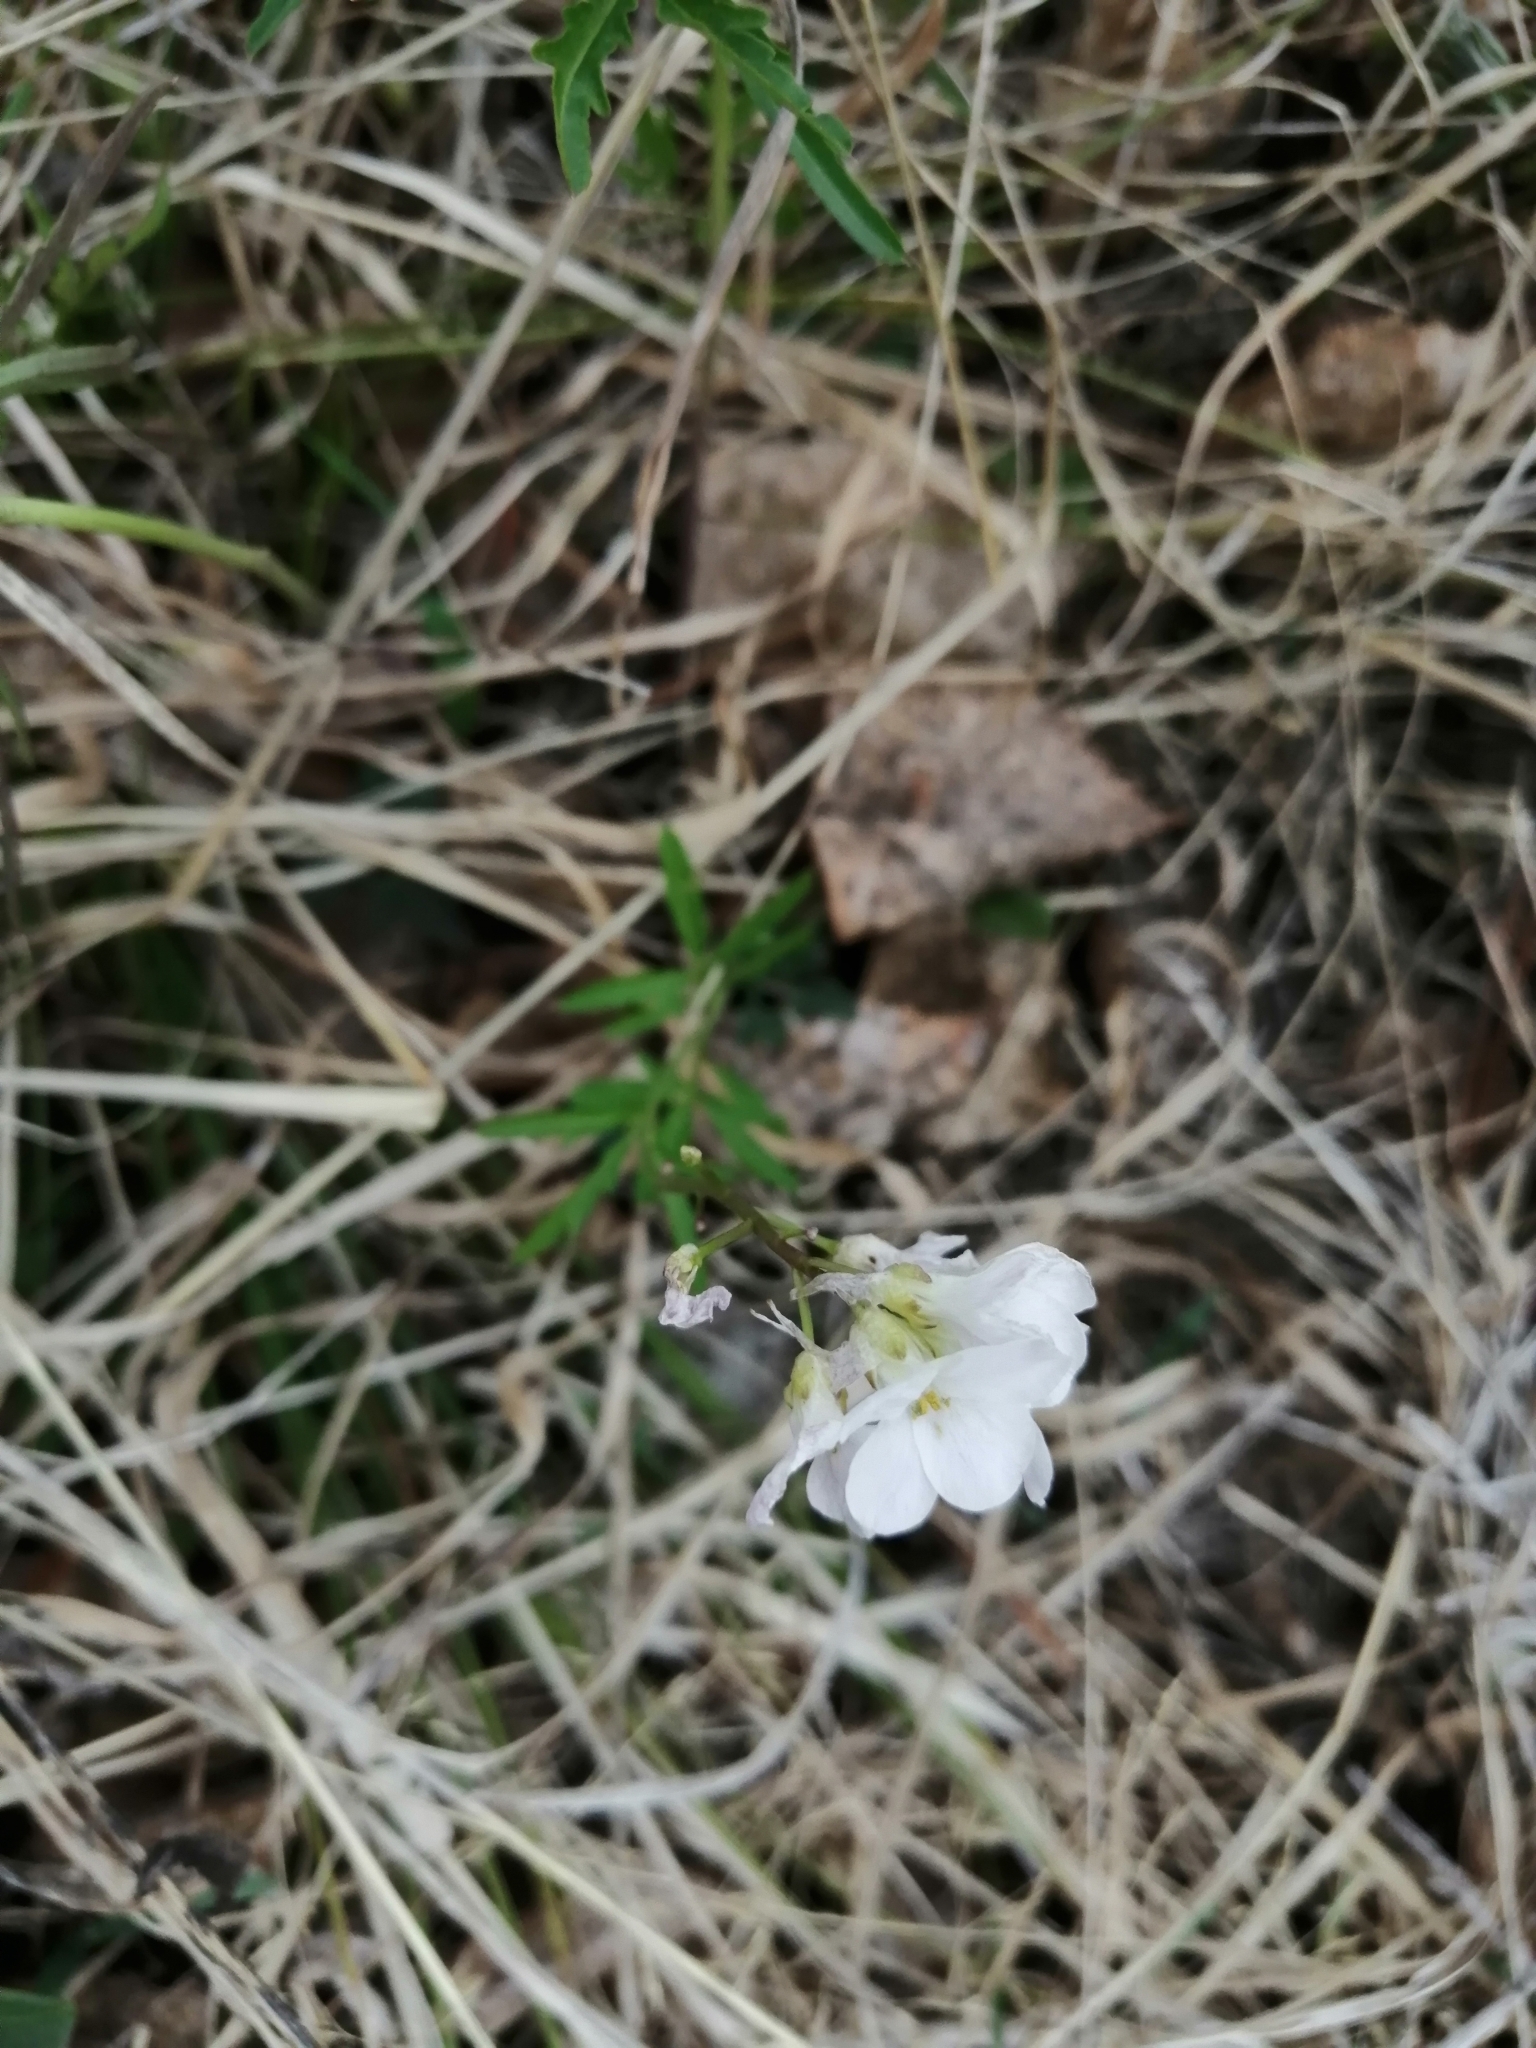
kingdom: Plantae
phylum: Tracheophyta
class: Magnoliopsida
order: Brassicales
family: Brassicaceae
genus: Cardamine
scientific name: Cardamine trifida
